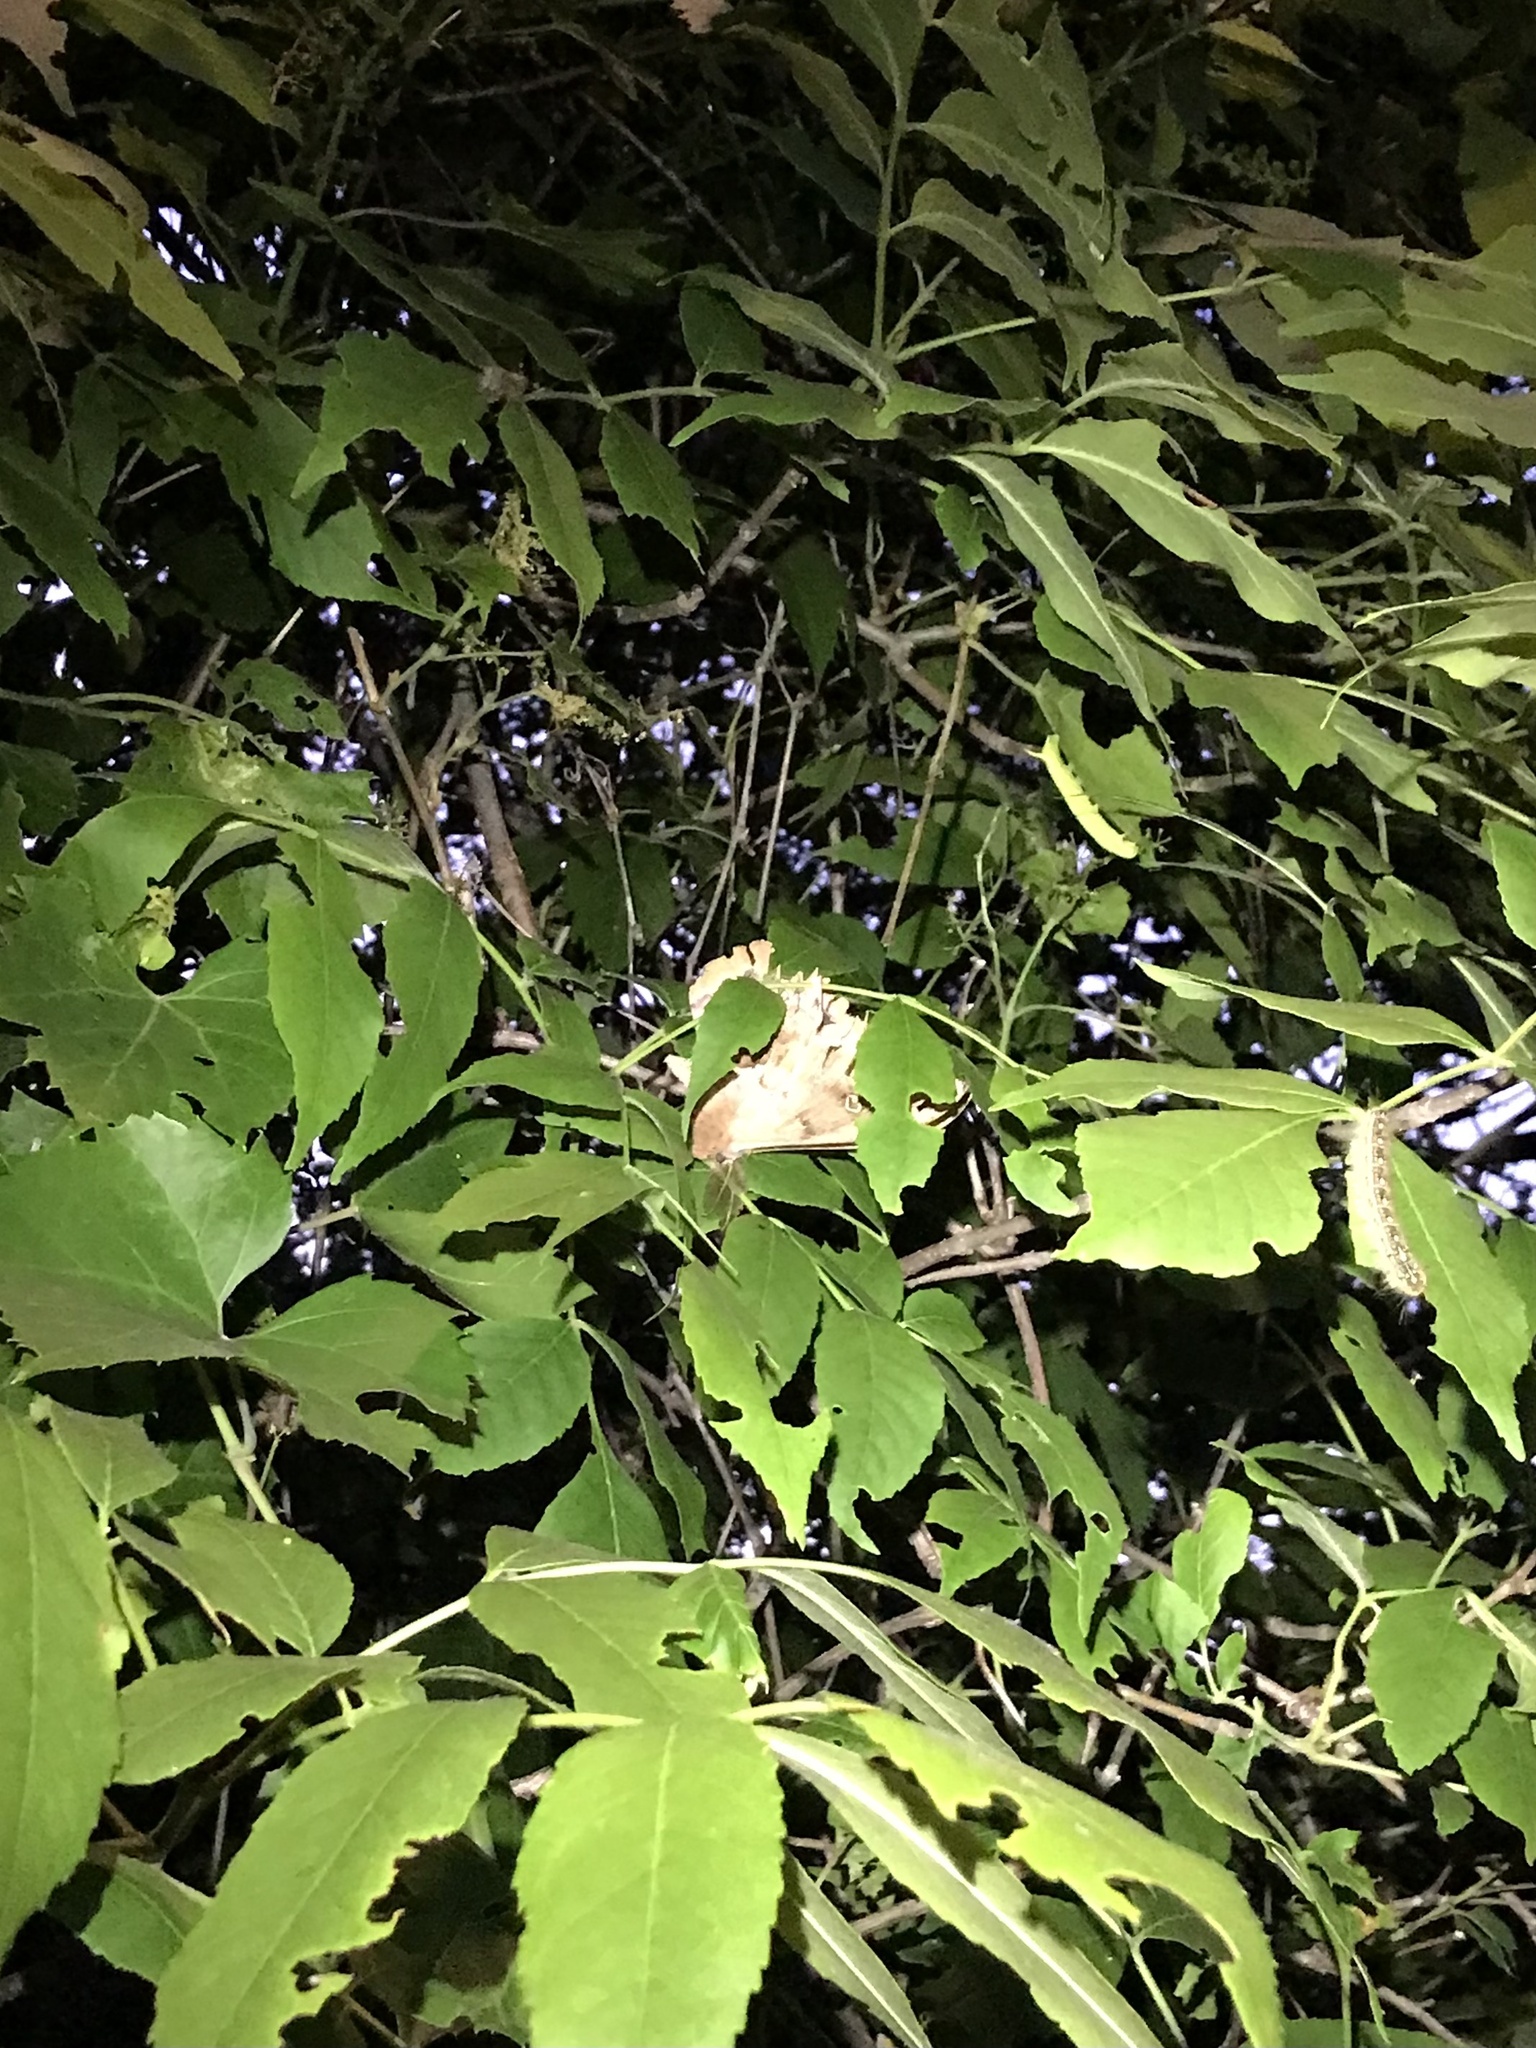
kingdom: Animalia
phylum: Arthropoda
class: Insecta
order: Lepidoptera
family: Saturniidae
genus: Antheraea
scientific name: Antheraea polyphemus
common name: Polyphemus moth
